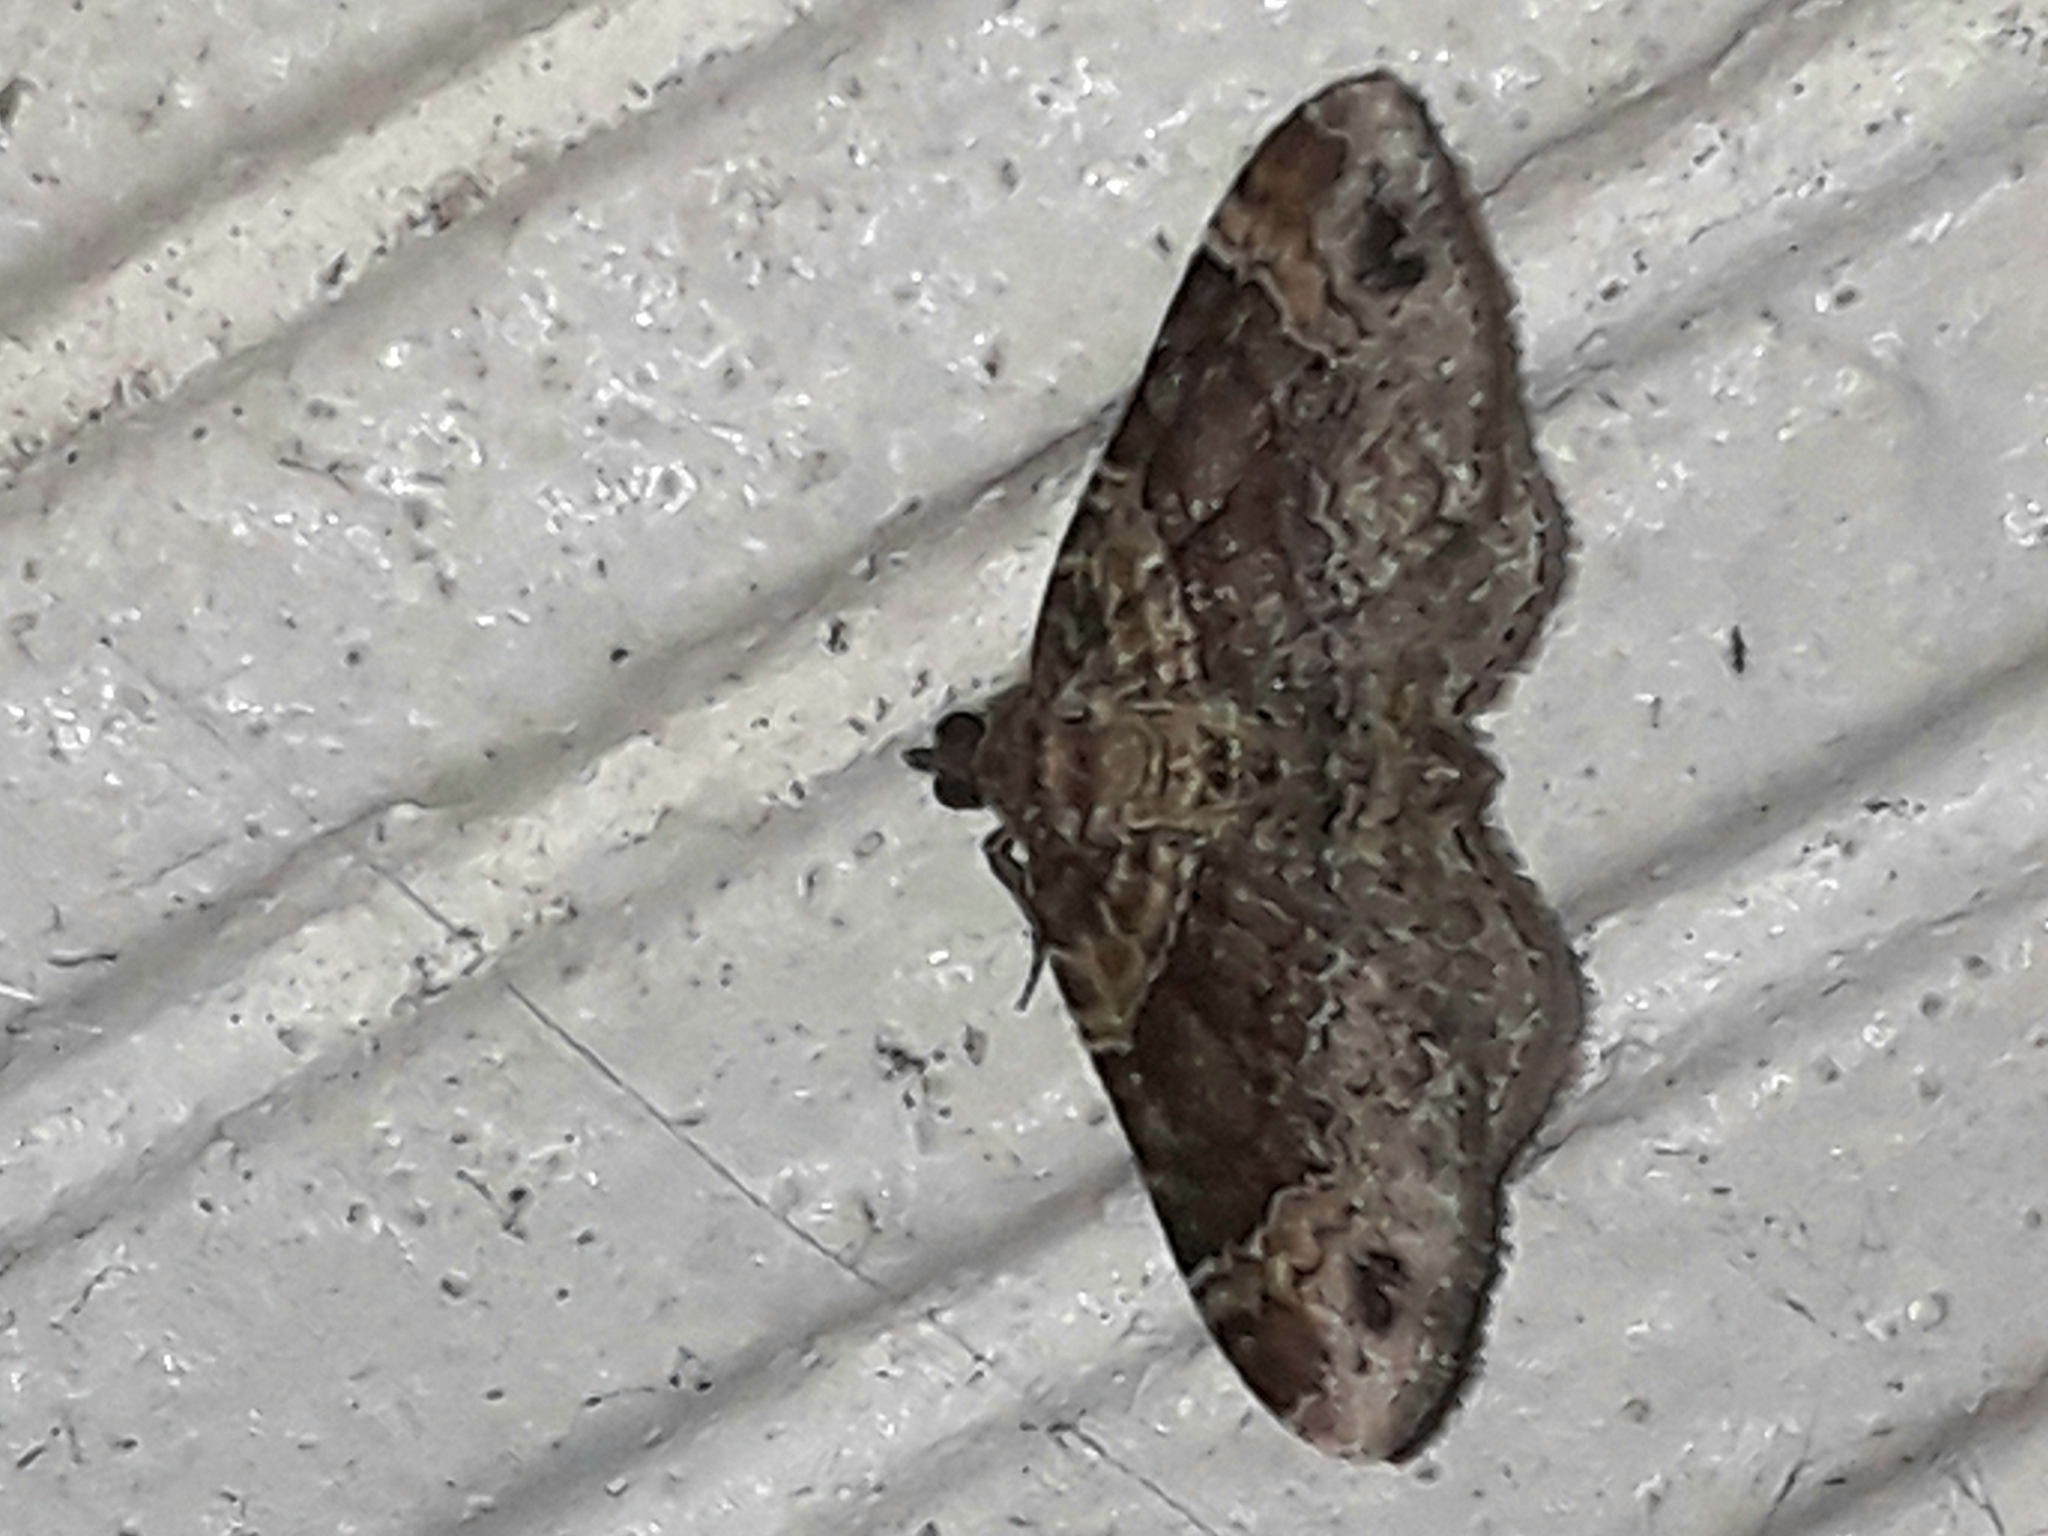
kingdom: Animalia
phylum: Arthropoda
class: Insecta
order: Lepidoptera
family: Geometridae
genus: Xanthorhoe
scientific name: Xanthorhoe ferrugata
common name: Dark-barred twin-spot carpet
